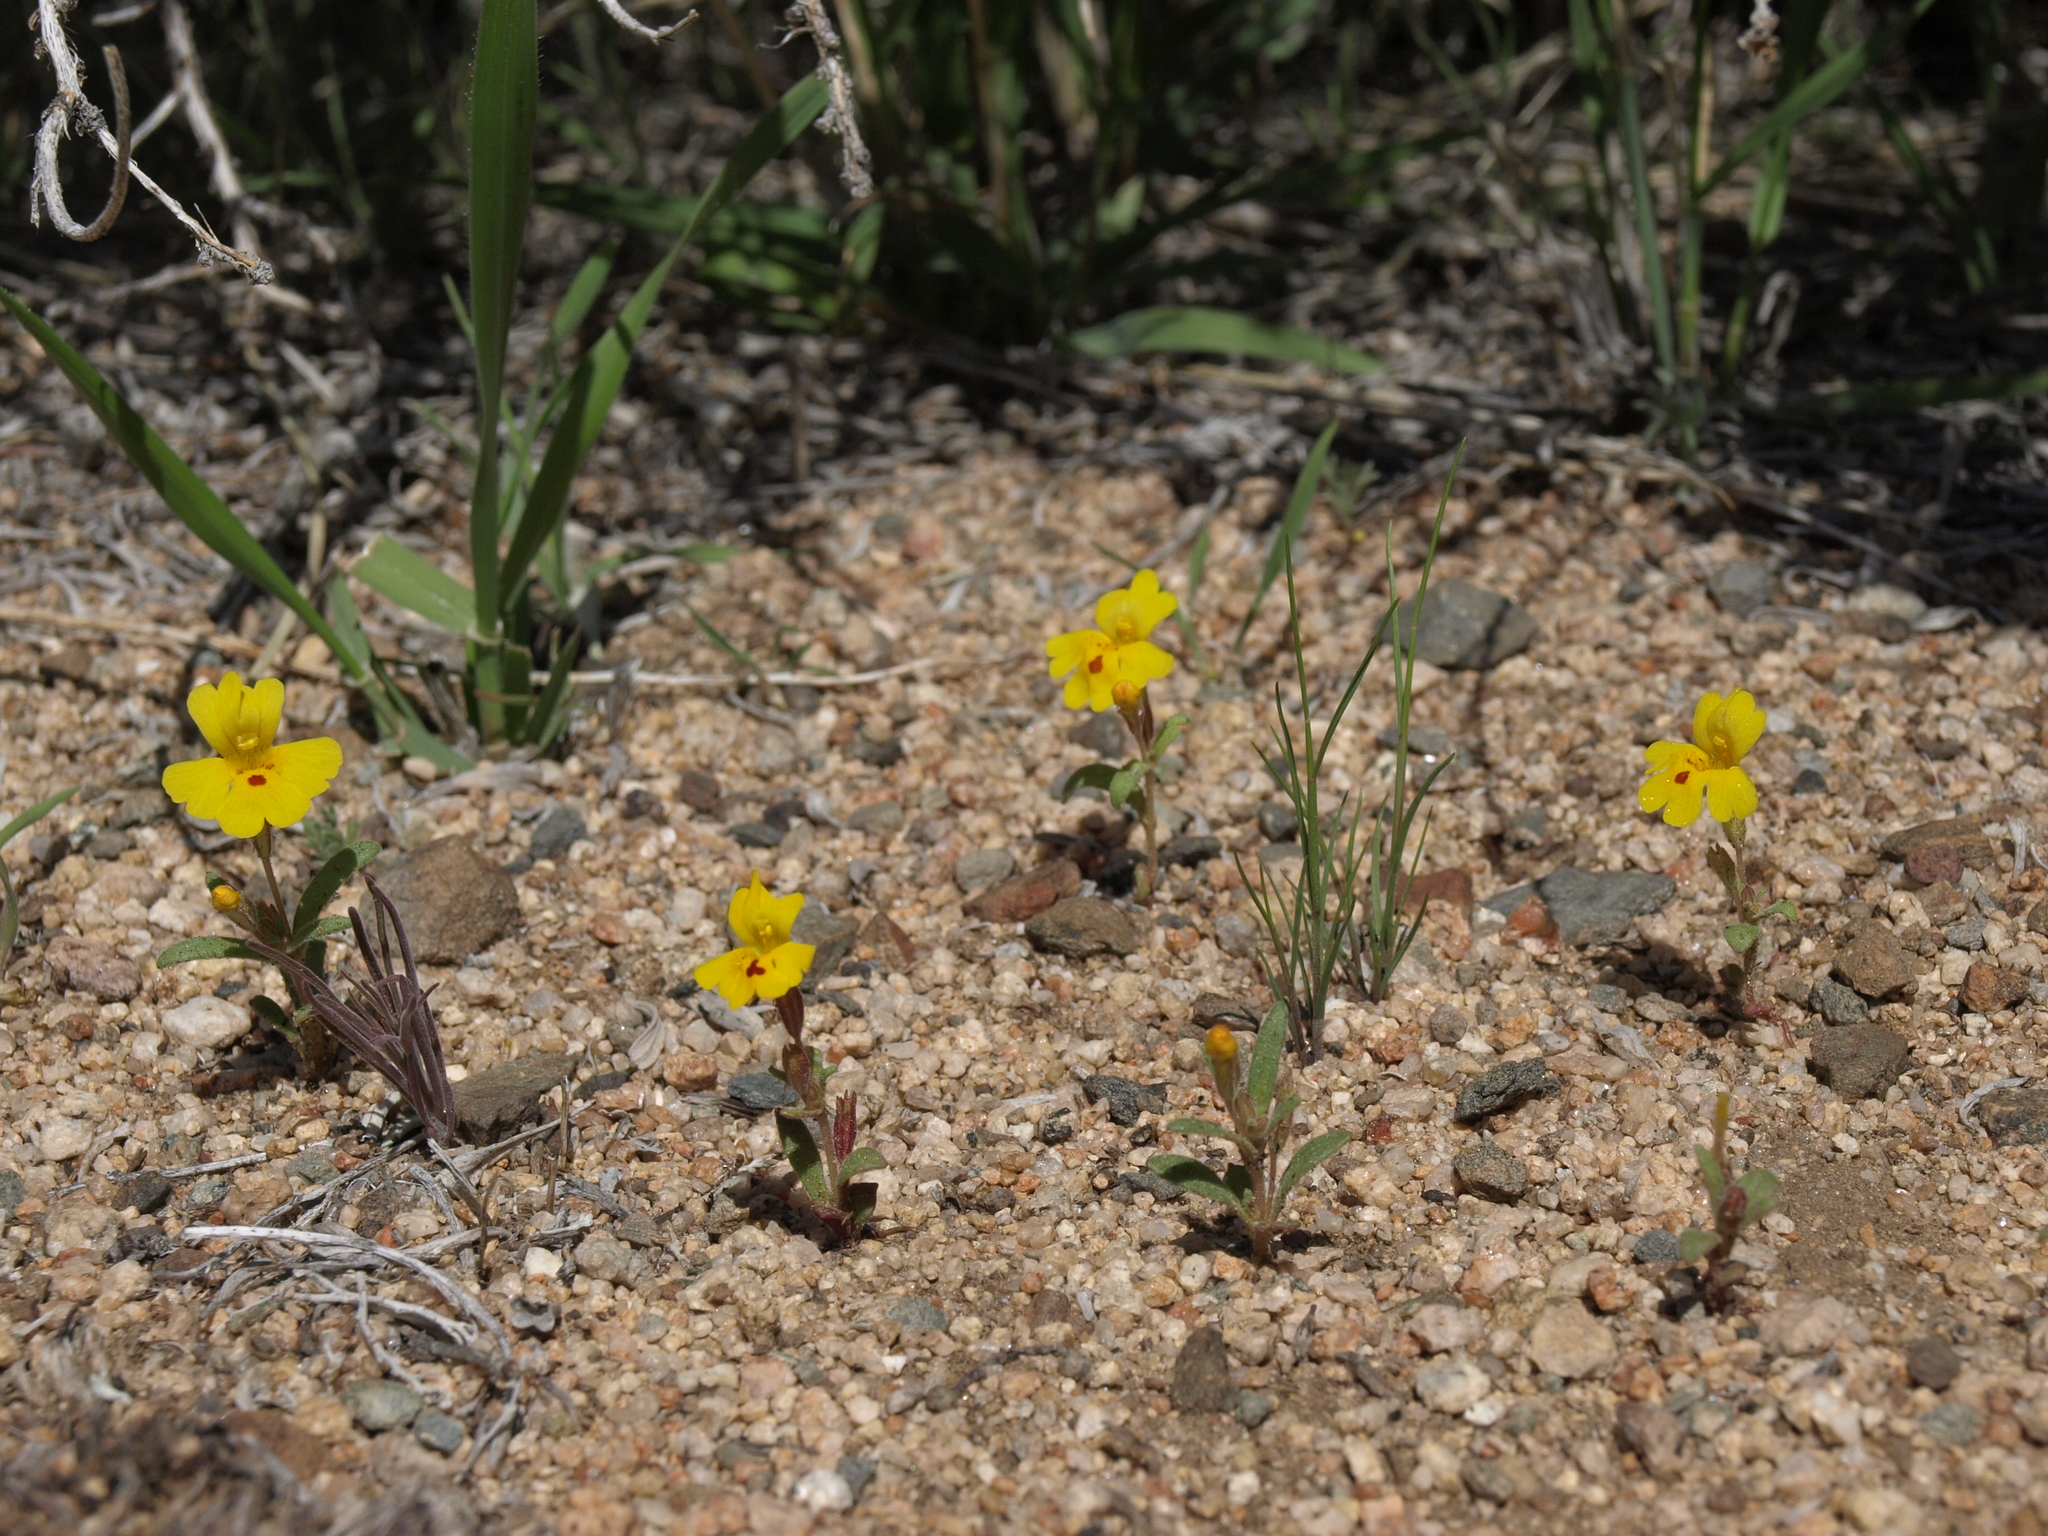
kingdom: Plantae
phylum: Tracheophyta
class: Magnoliopsida
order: Lamiales
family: Phrymaceae
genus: Erythranthe
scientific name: Erythranthe carsonensis
